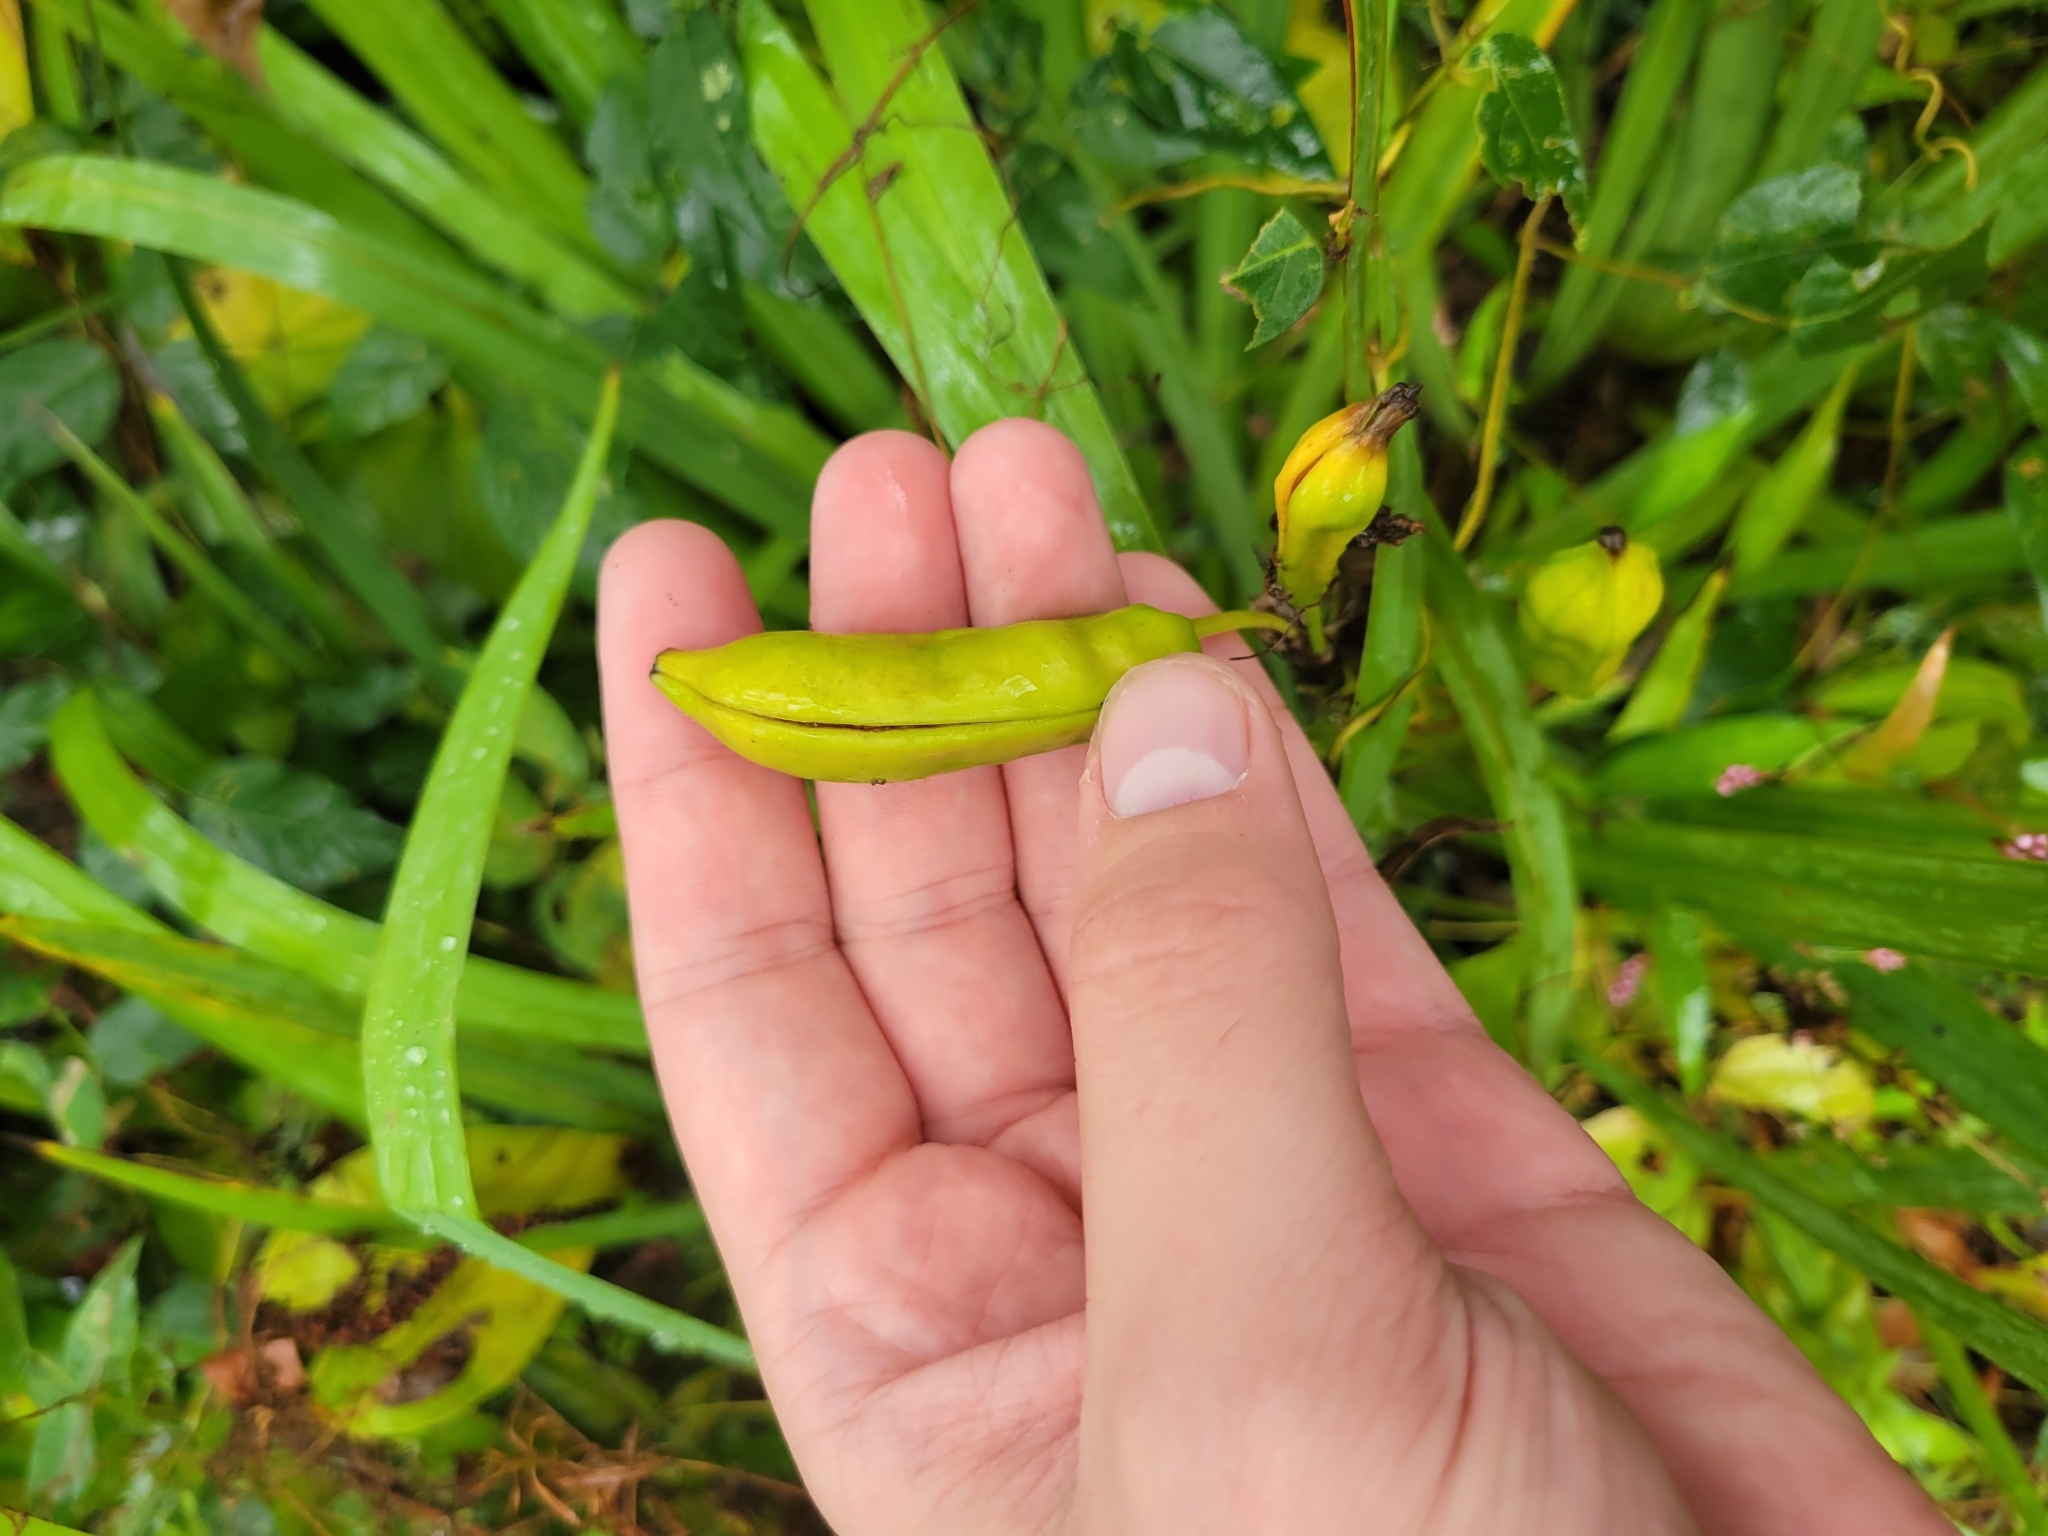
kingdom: Plantae
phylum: Tracheophyta
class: Liliopsida
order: Asparagales
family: Iridaceae
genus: Iris
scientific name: Iris pseudacorus
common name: Yellow flag
